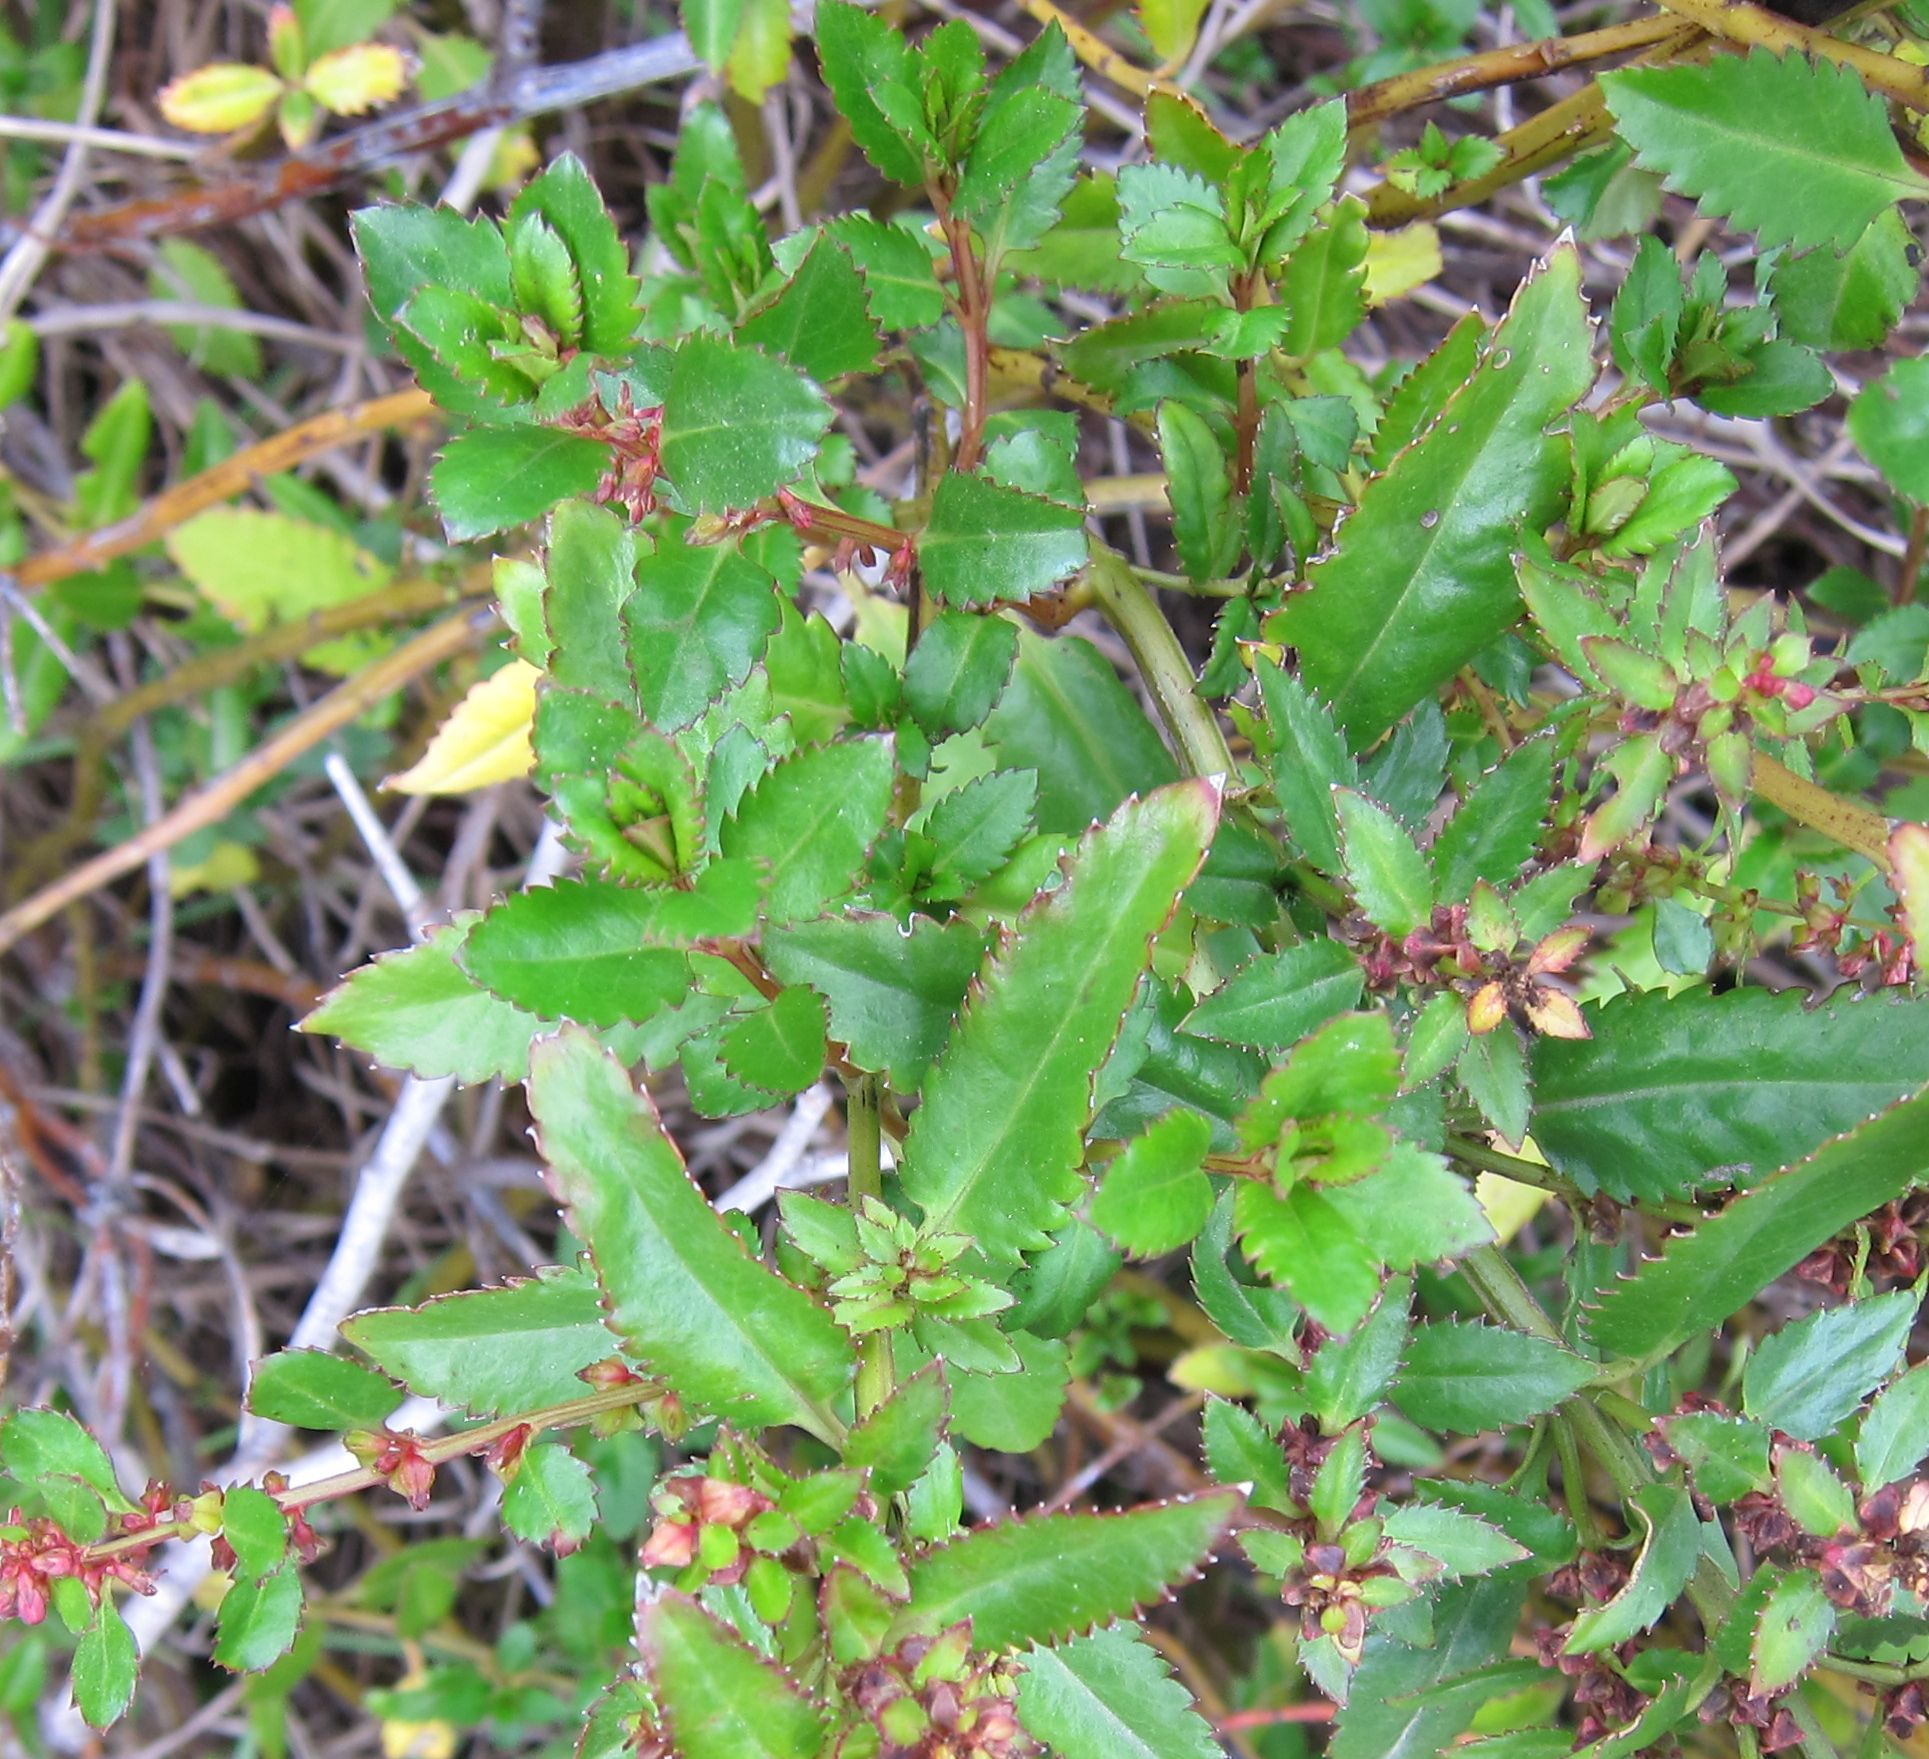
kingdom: Plantae
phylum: Tracheophyta
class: Magnoliopsida
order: Saxifragales
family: Haloragaceae
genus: Haloragis
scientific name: Haloragis erecta
